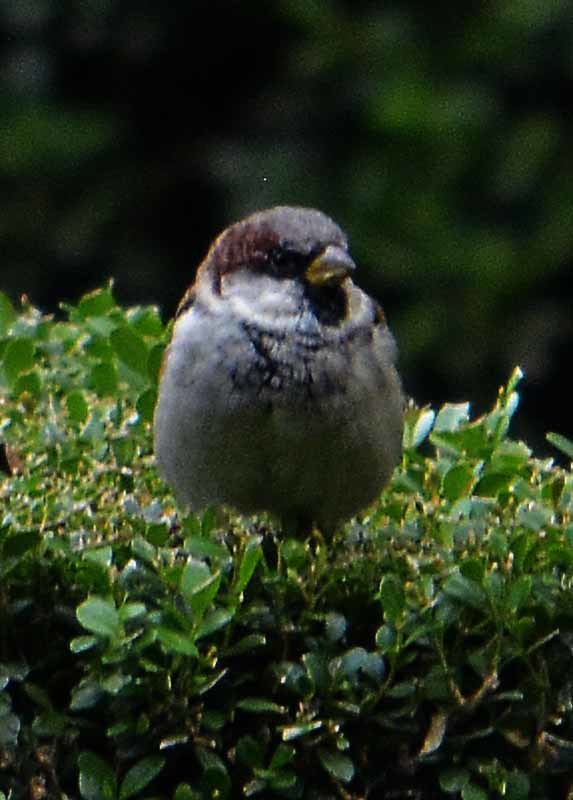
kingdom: Animalia
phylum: Chordata
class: Aves
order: Passeriformes
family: Passeridae
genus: Passer
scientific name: Passer domesticus
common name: House sparrow
